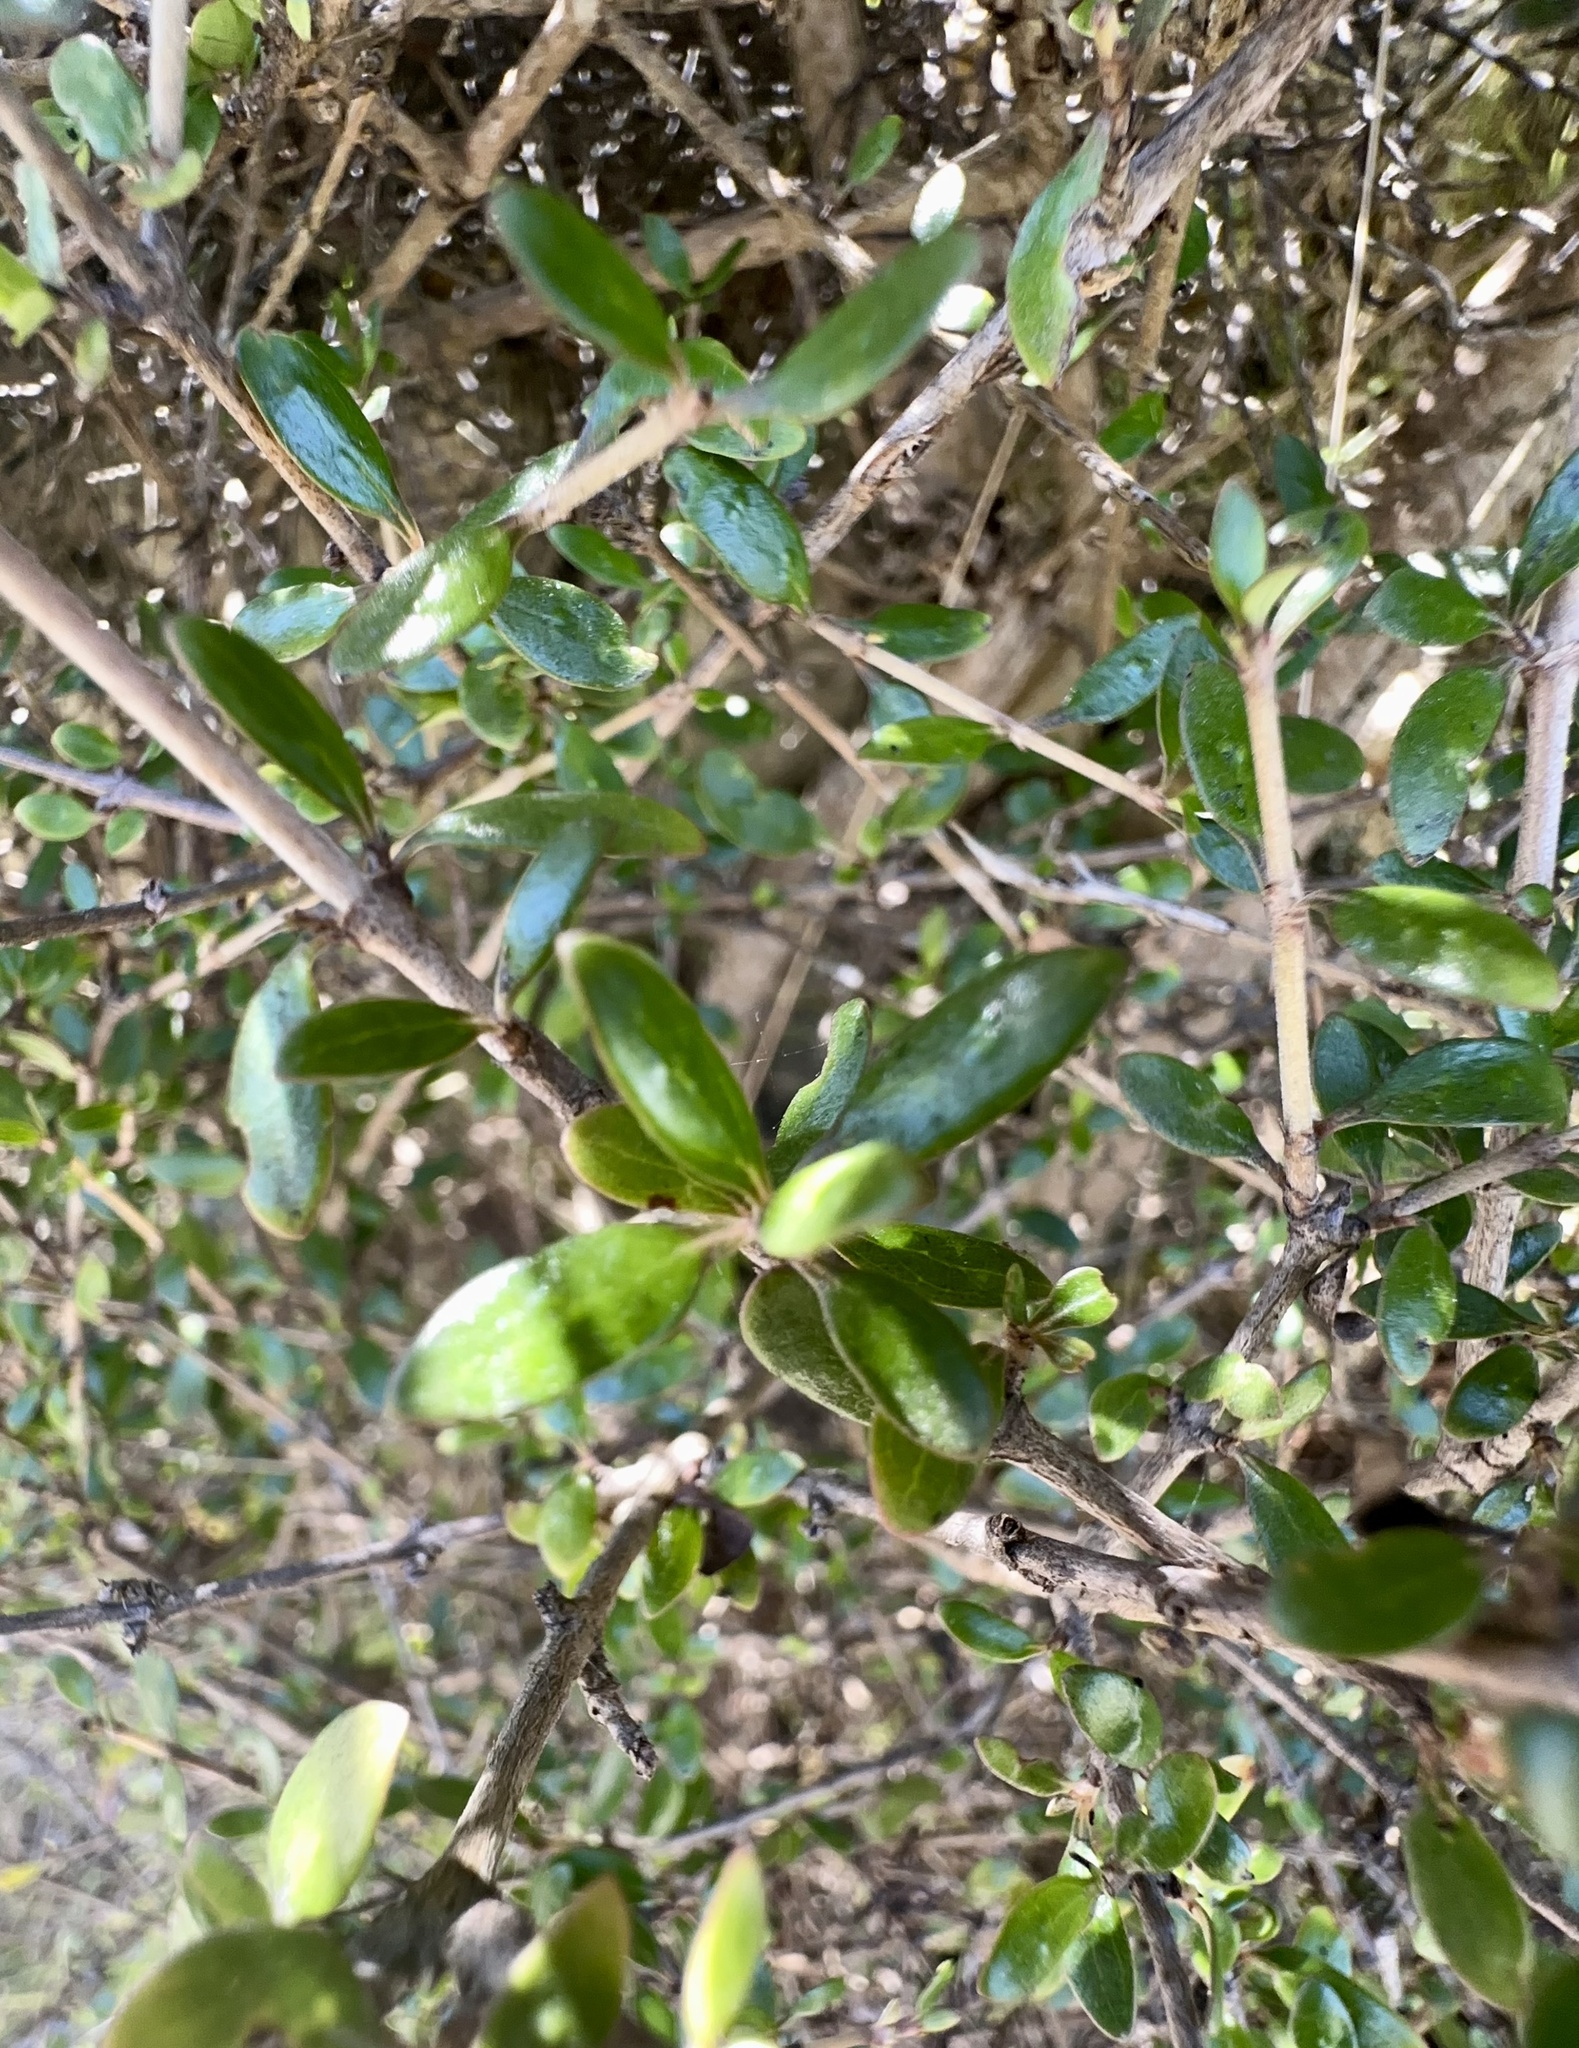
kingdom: Plantae
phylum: Tracheophyta
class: Magnoliopsida
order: Gentianales
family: Rubiaceae
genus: Coprosma
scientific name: Coprosma propinqua
